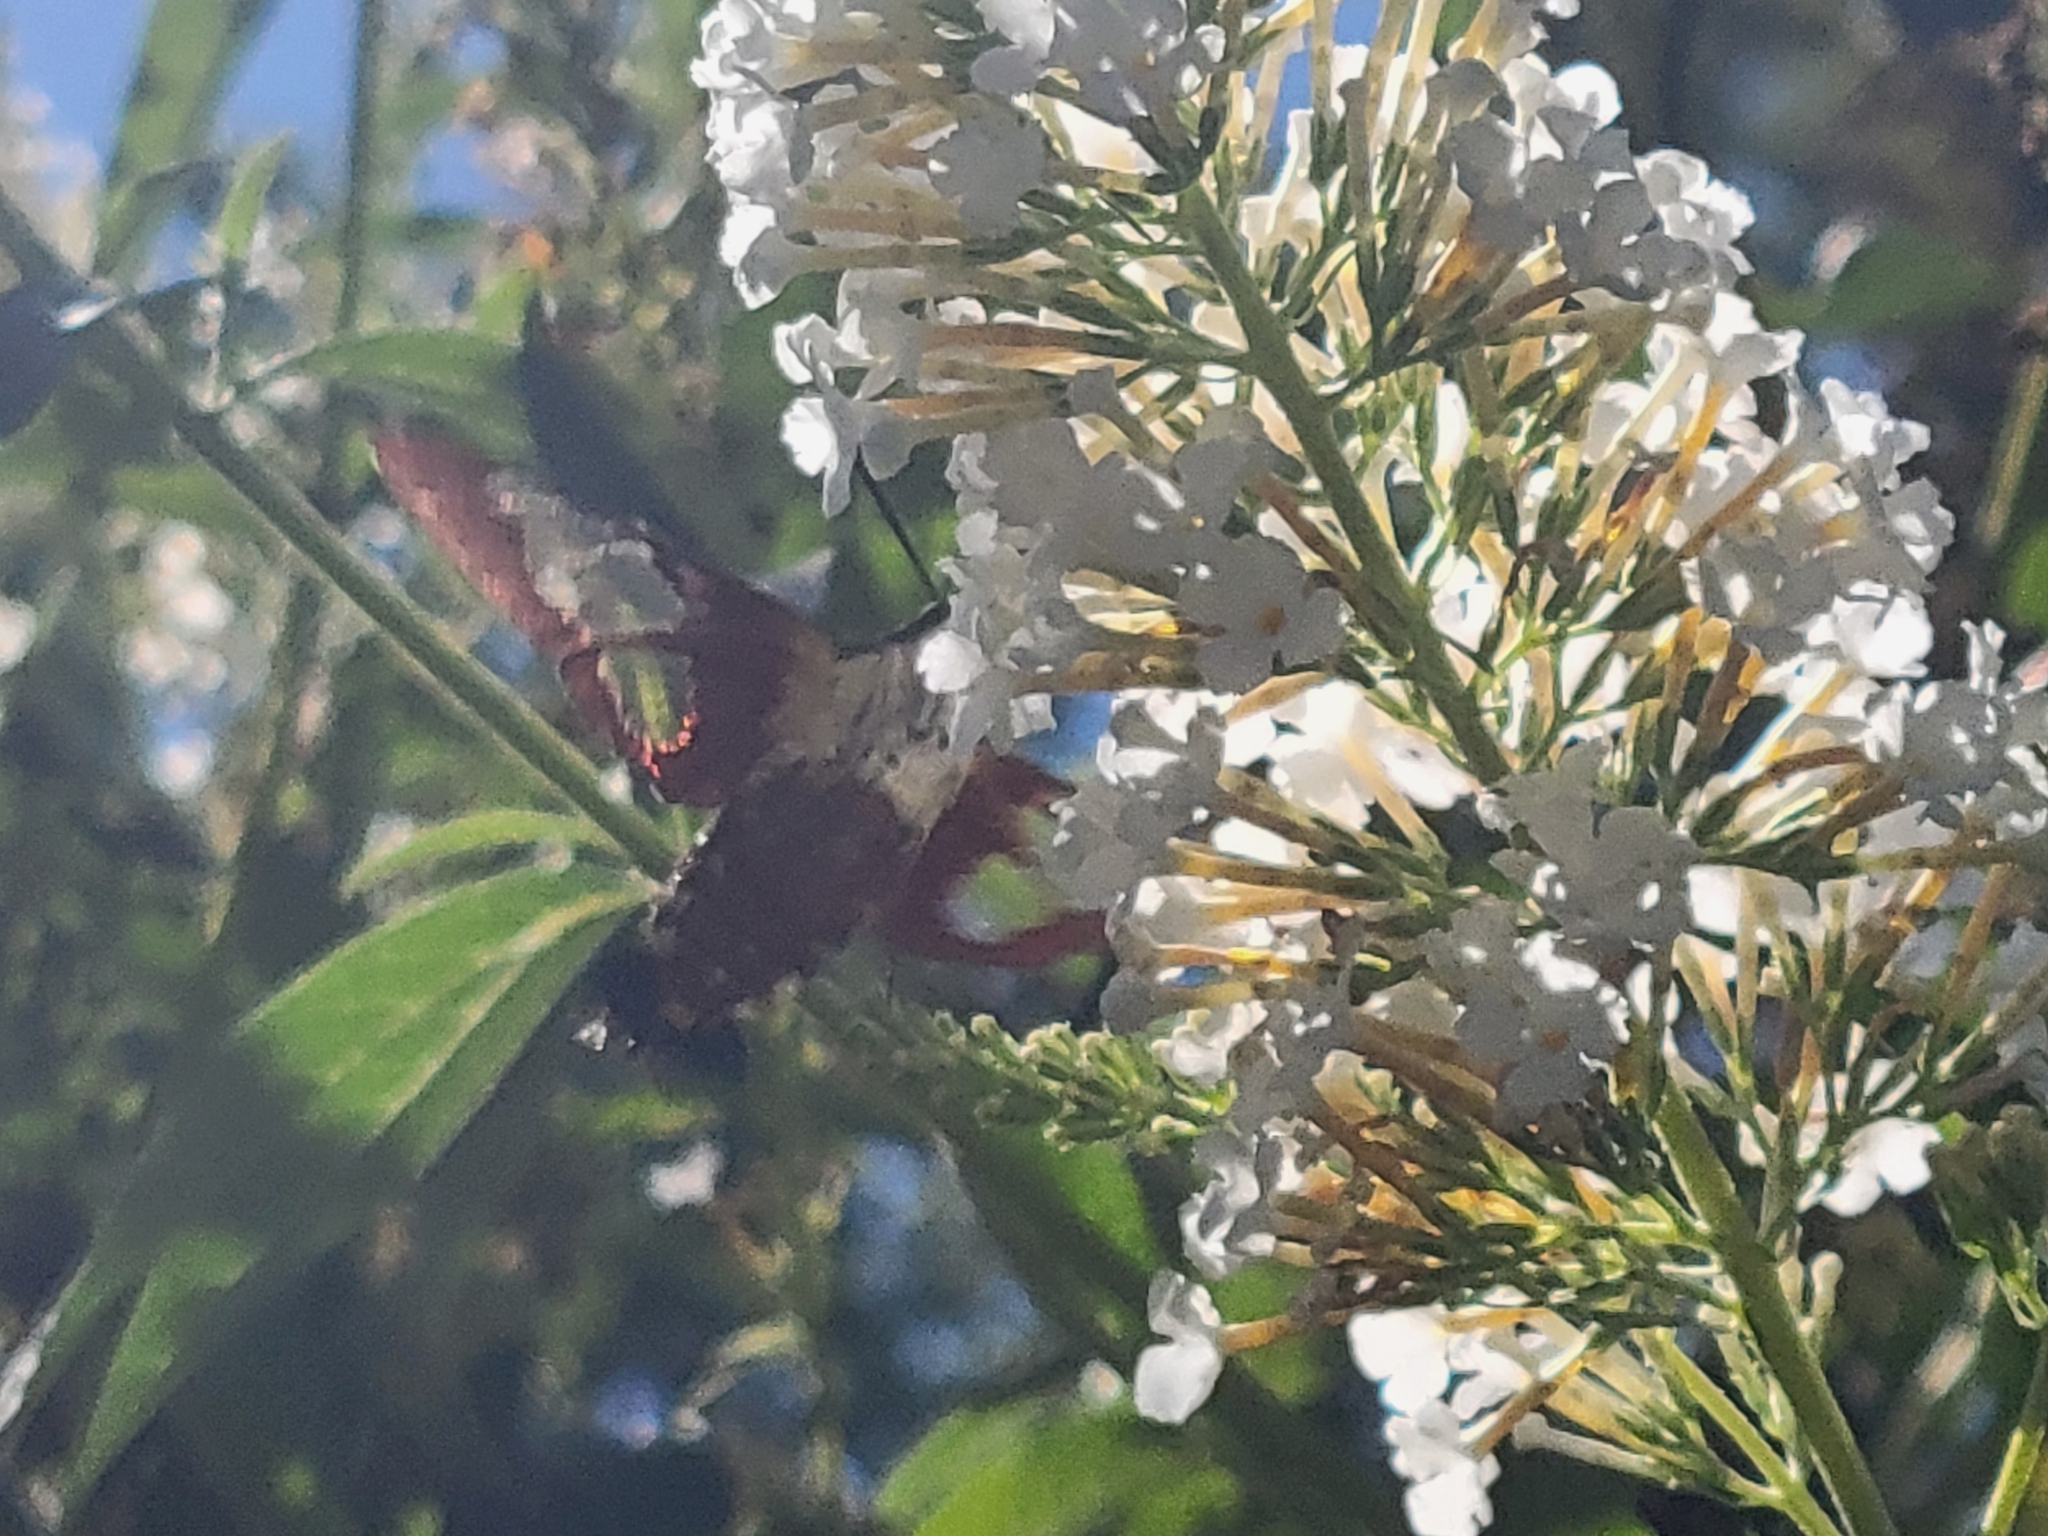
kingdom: Animalia
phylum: Arthropoda
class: Insecta
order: Lepidoptera
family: Sphingidae
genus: Hemaris
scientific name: Hemaris thysbe
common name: Common clear-wing
